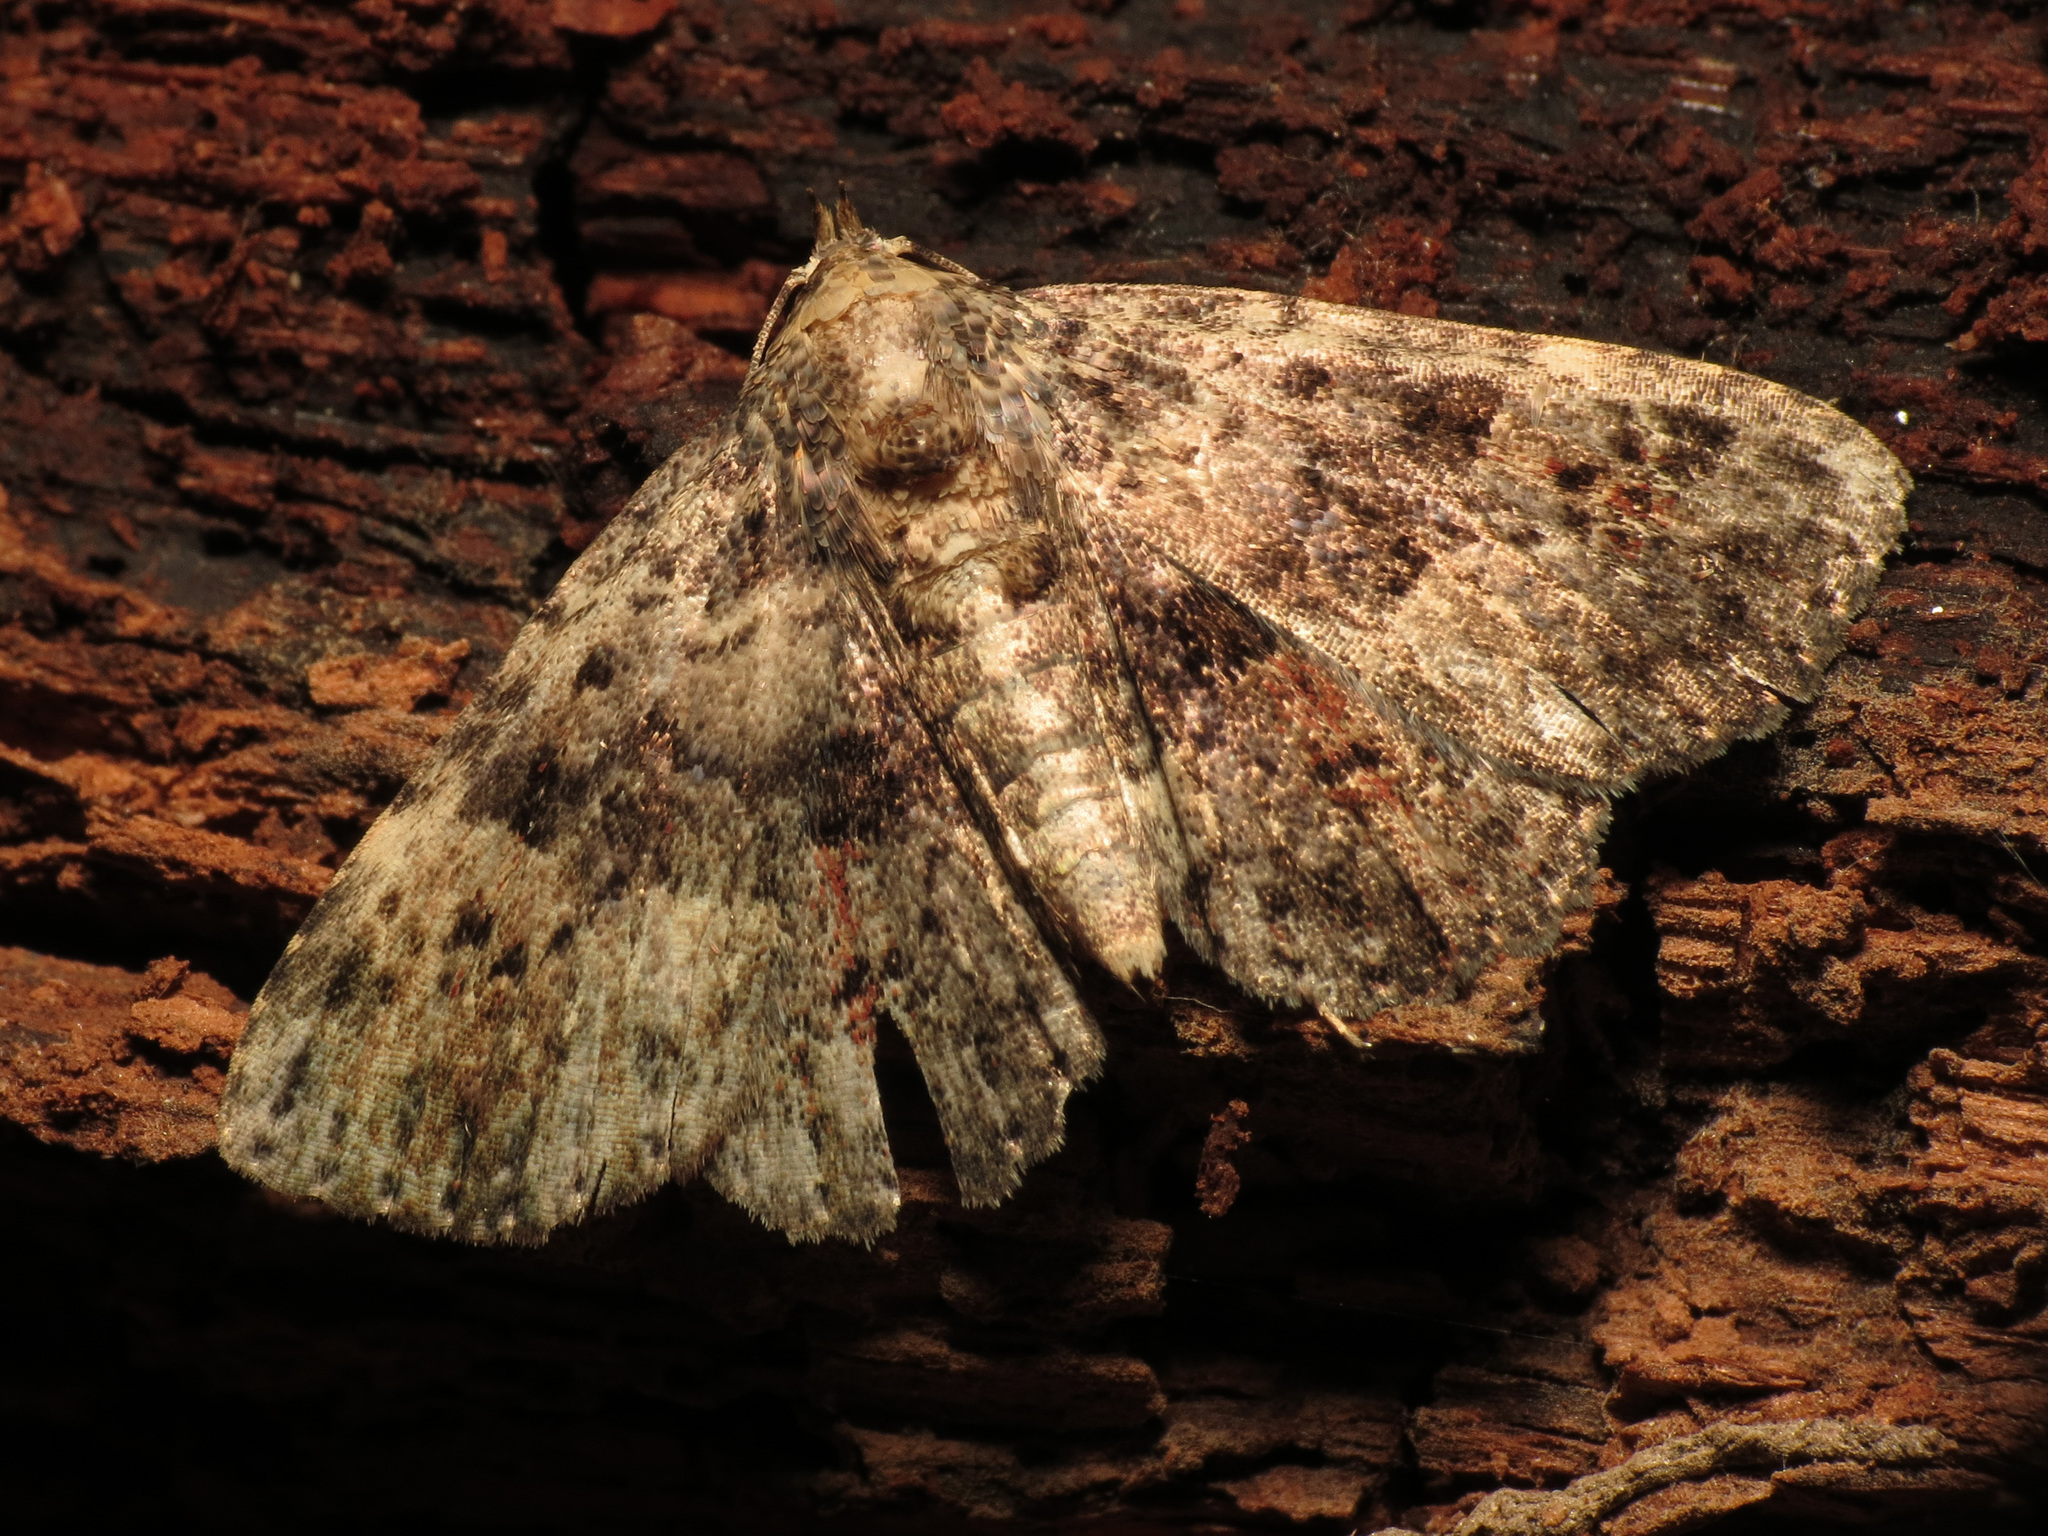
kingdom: Animalia
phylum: Arthropoda
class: Insecta
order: Lepidoptera
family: Erebidae
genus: Metalectra
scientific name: Metalectra discalis
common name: Common fungus moth
